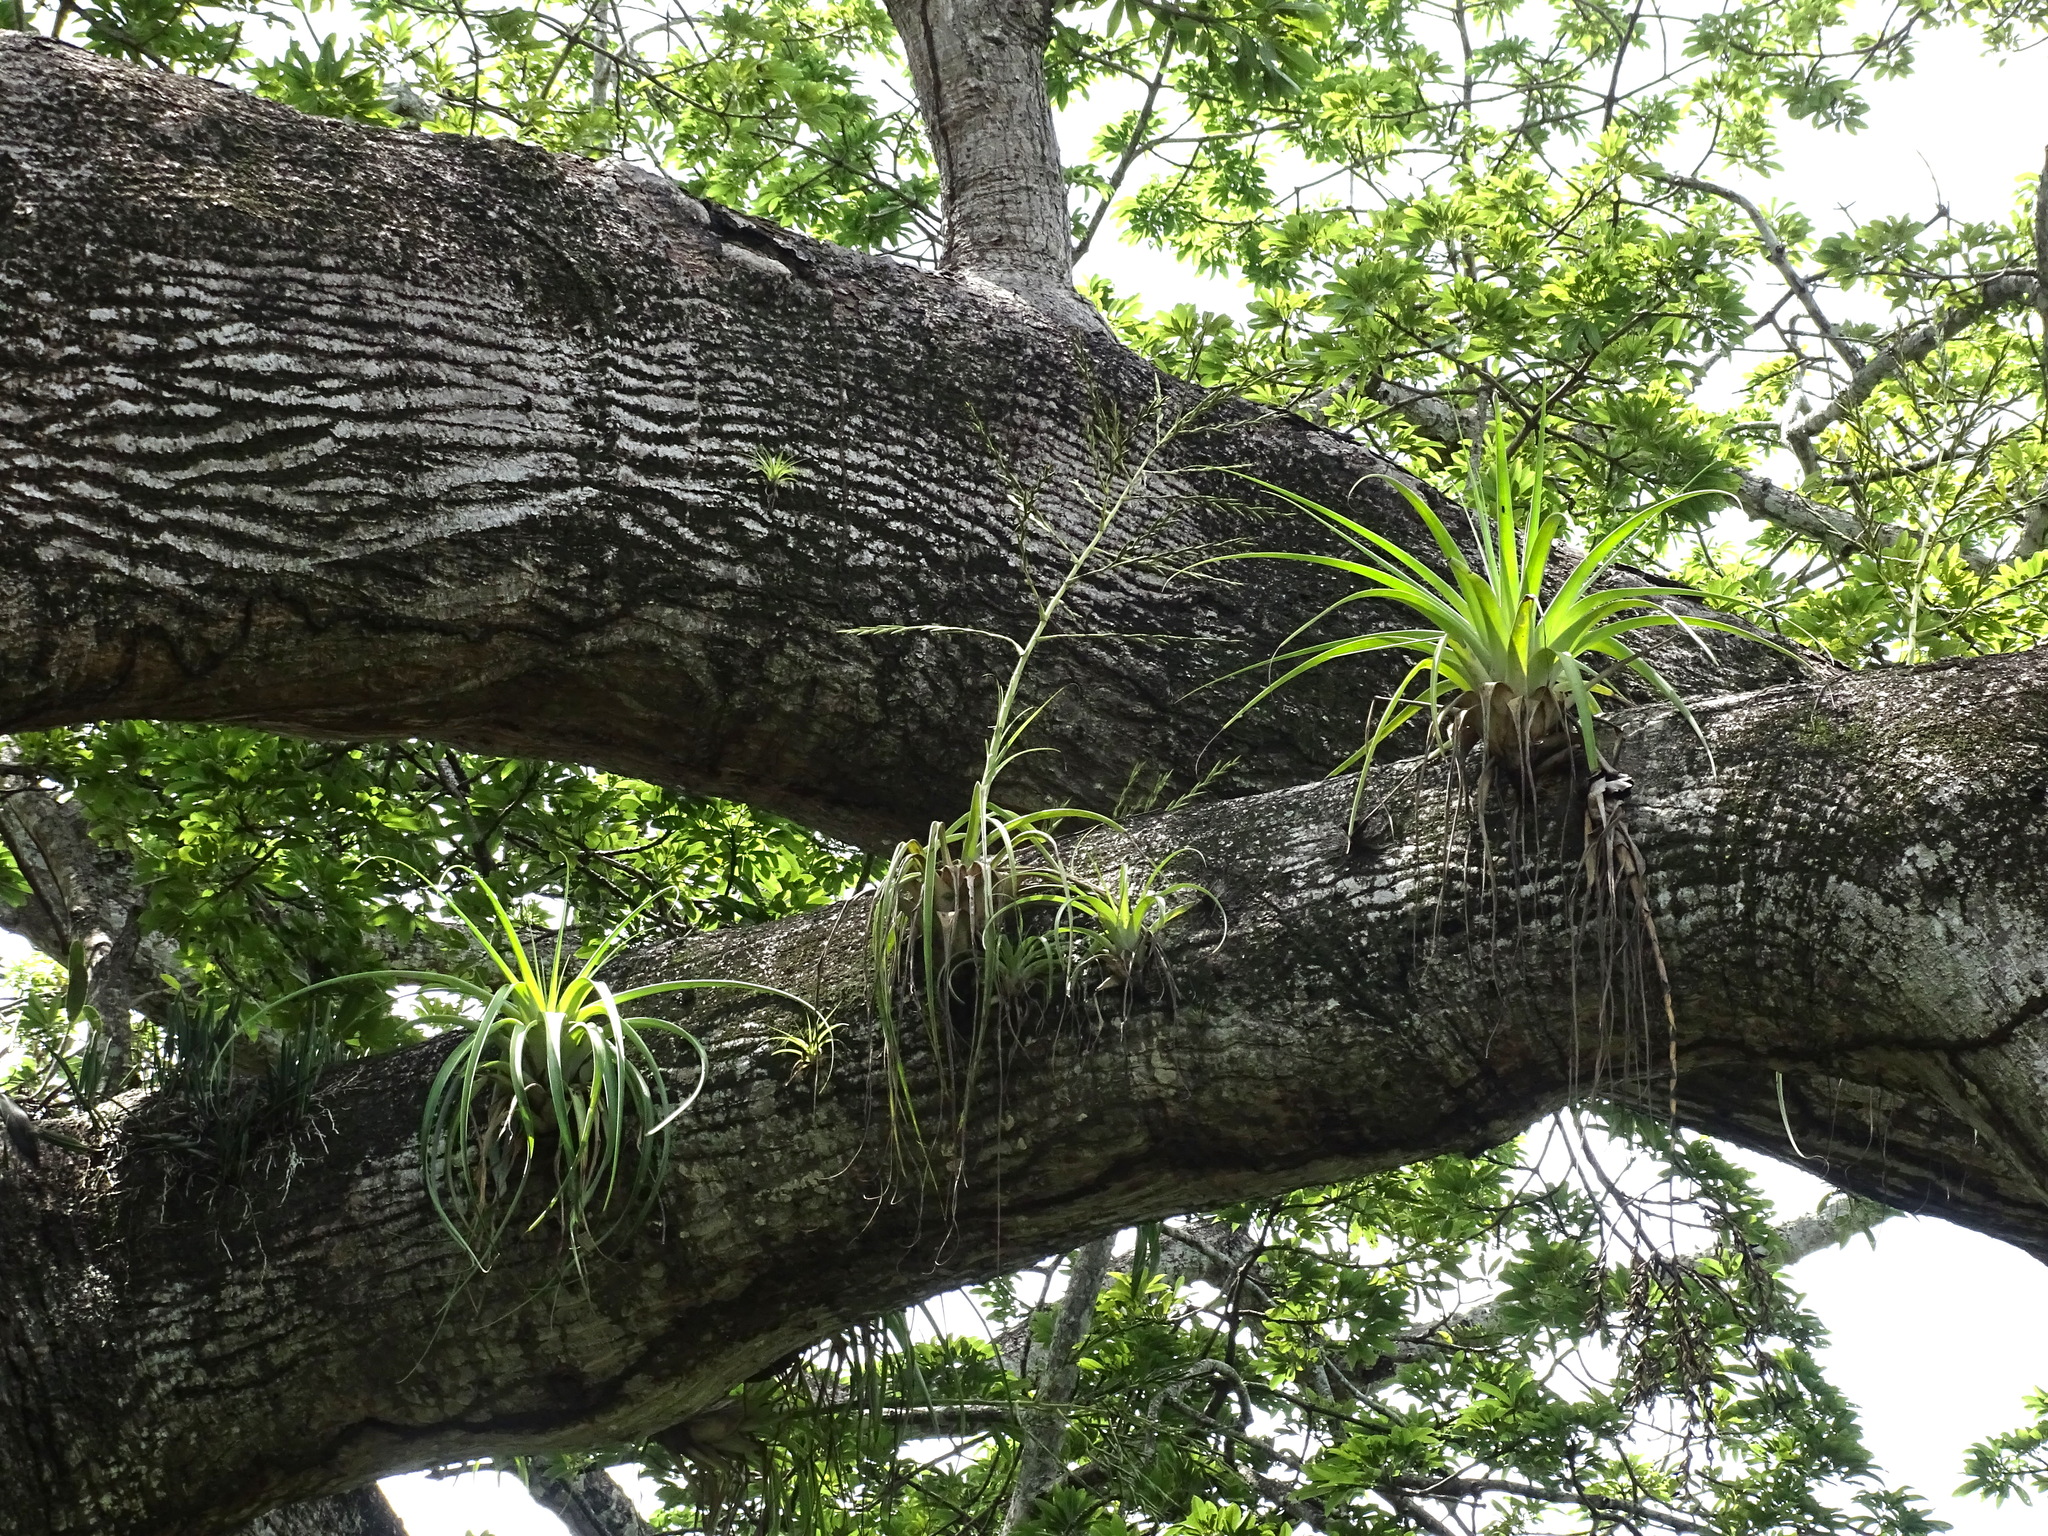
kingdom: Plantae
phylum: Tracheophyta
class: Liliopsida
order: Poales
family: Bromeliaceae
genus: Tillandsia
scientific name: Tillandsia utriculata
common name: Wild pine
